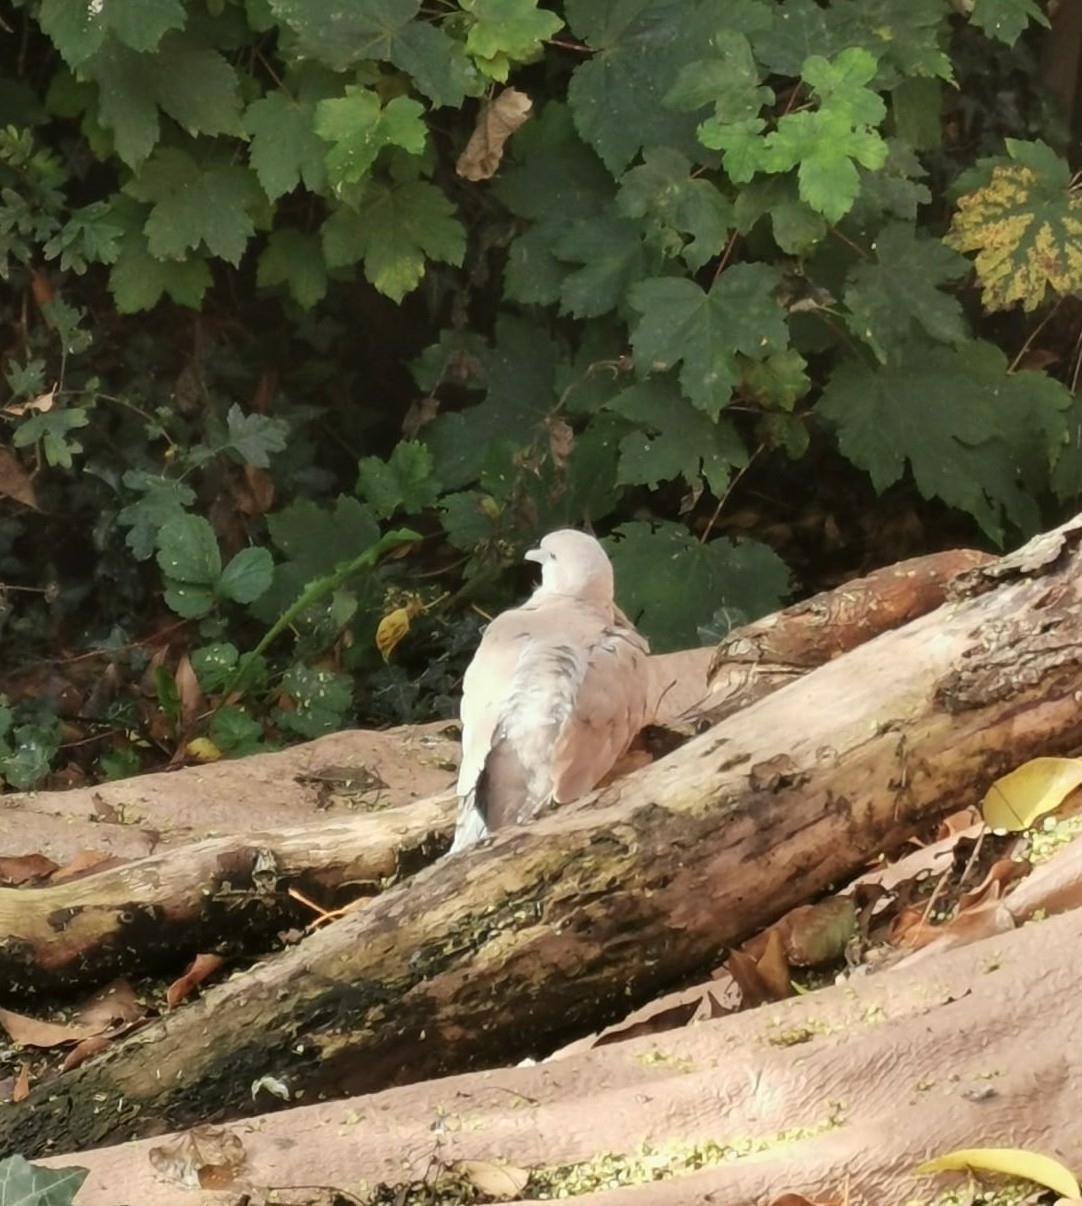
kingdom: Animalia
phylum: Chordata
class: Aves
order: Columbiformes
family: Columbidae
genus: Streptopelia
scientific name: Streptopelia decaocto
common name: Eurasian collared dove
